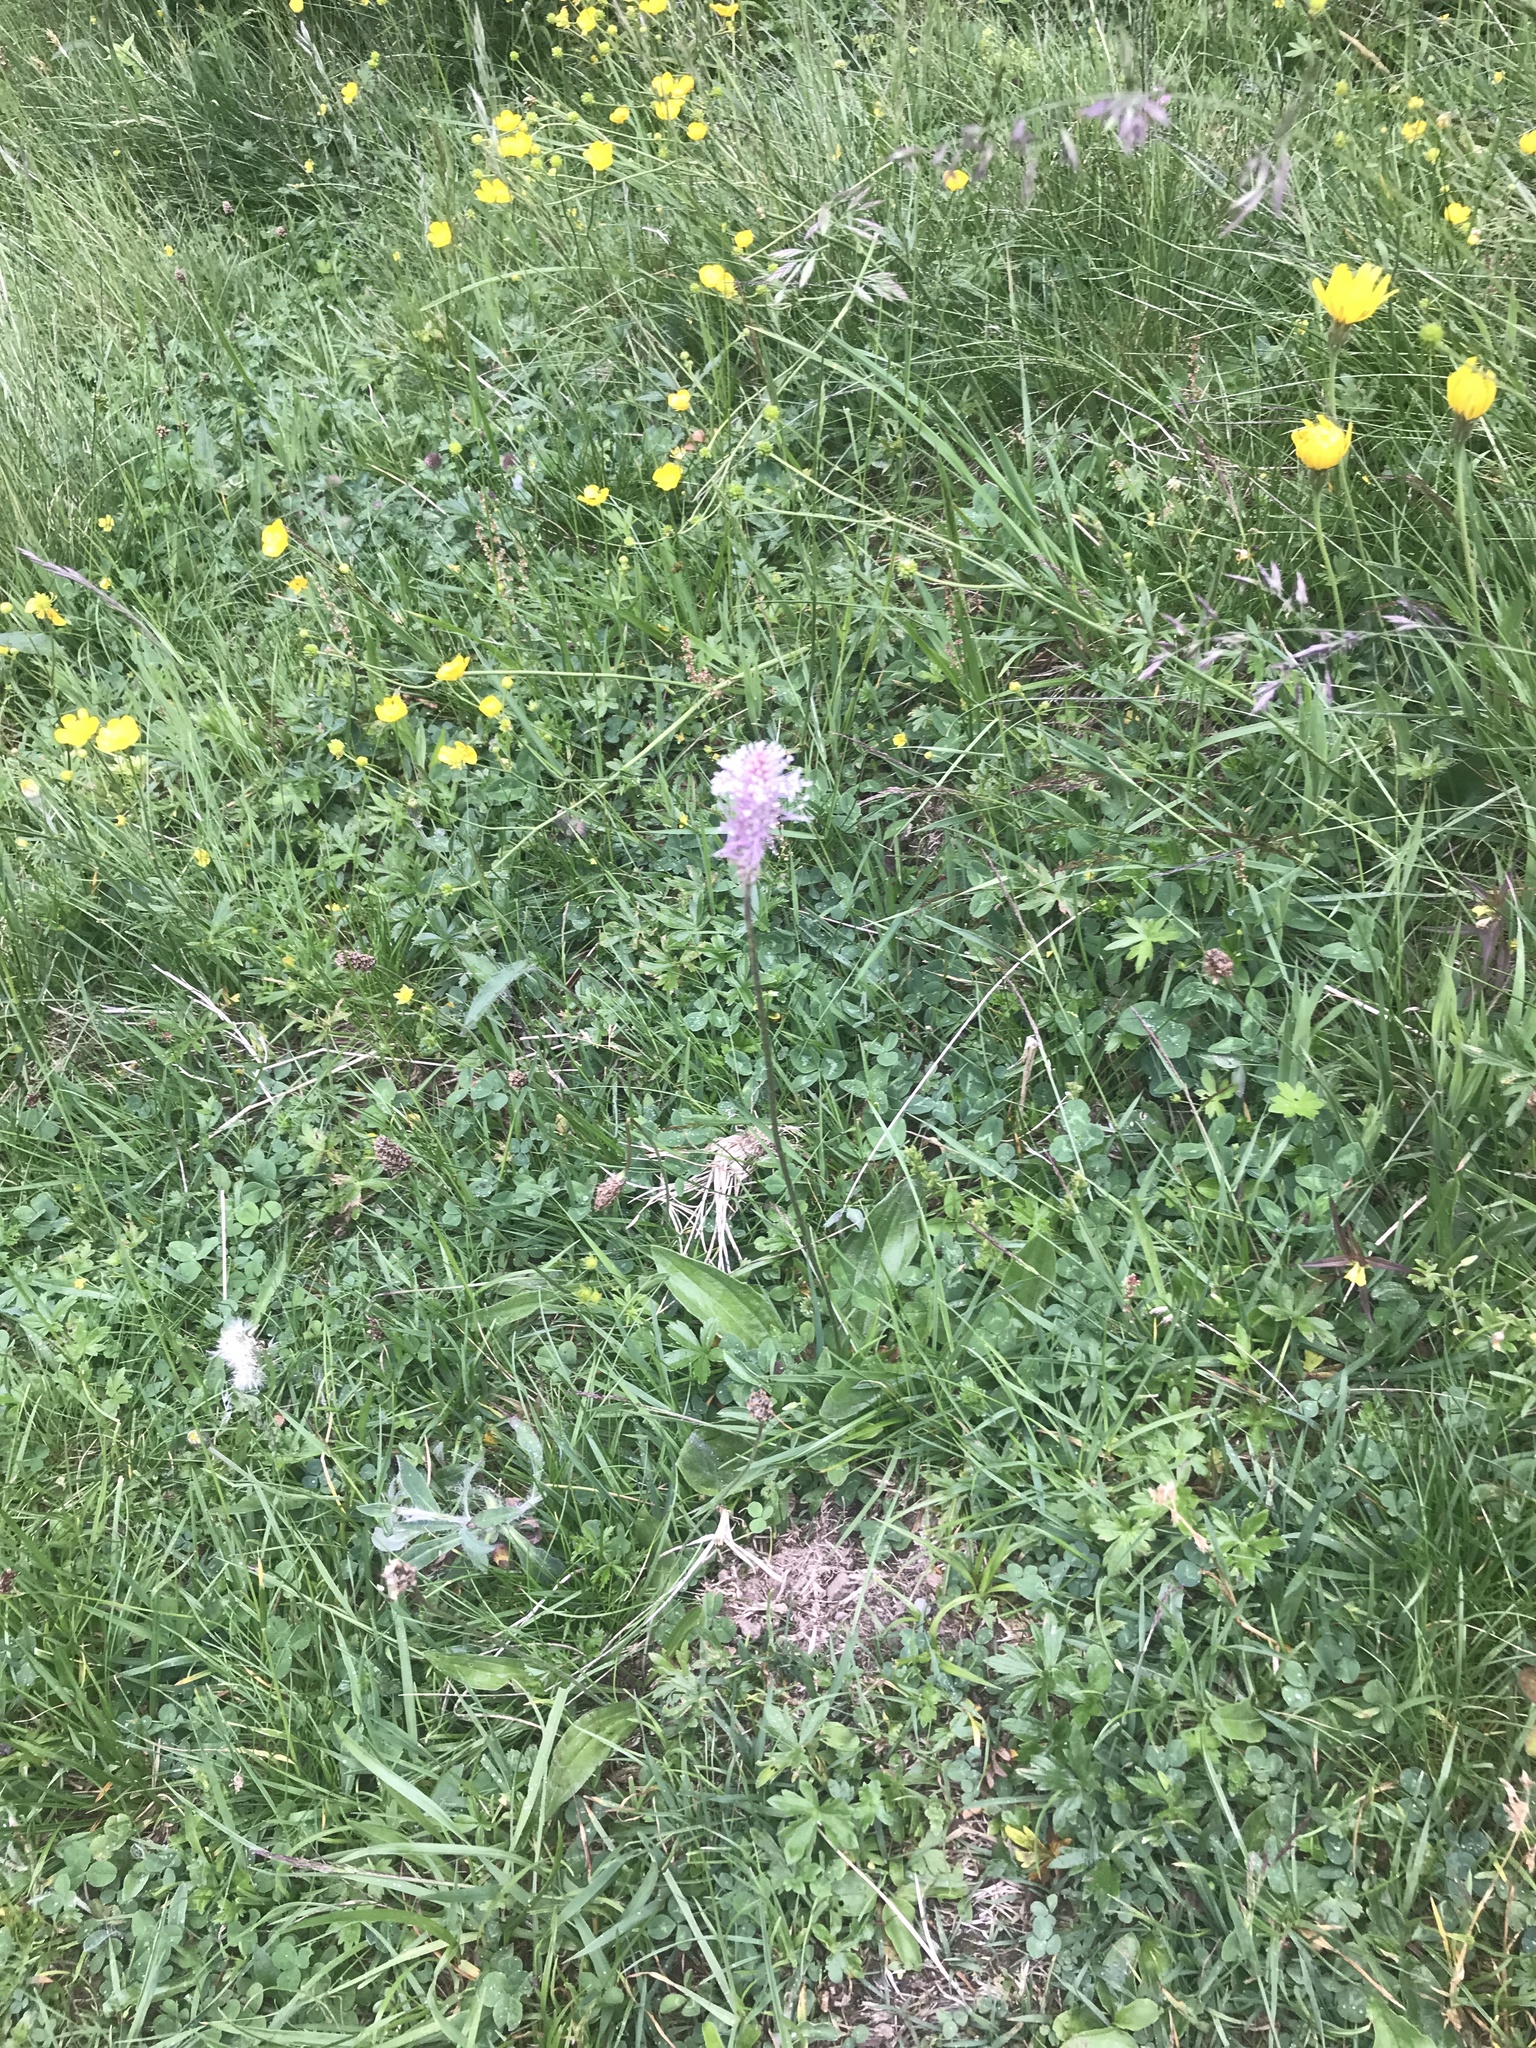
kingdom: Plantae
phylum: Tracheophyta
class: Magnoliopsida
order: Lamiales
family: Plantaginaceae
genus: Plantago
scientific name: Plantago media
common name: Hoary plantain
